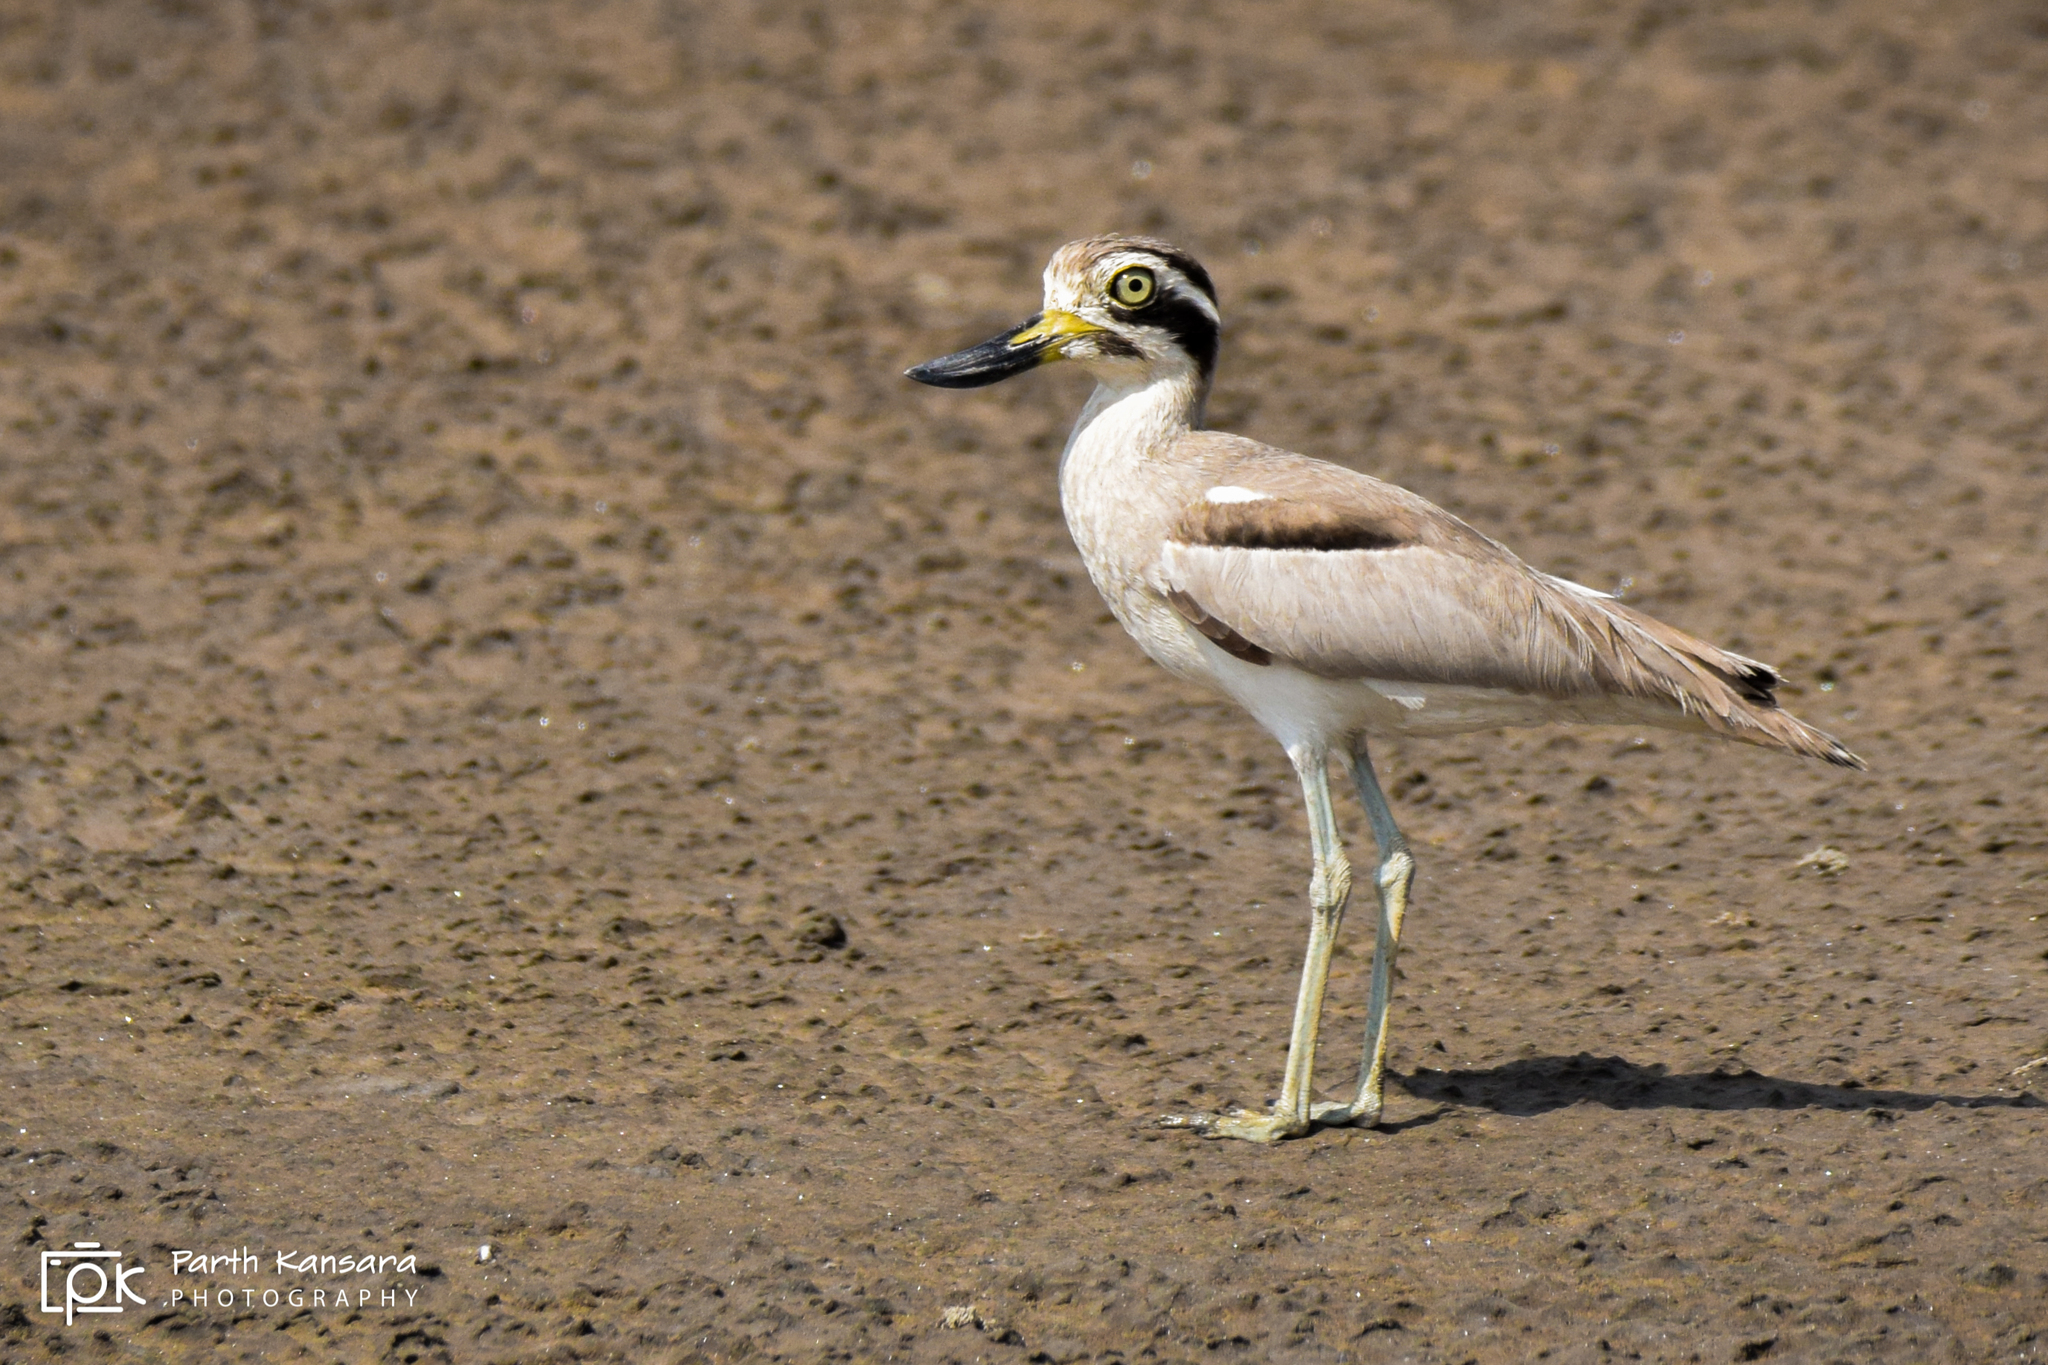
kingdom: Animalia
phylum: Chordata
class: Aves
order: Charadriiformes
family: Burhinidae
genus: Esacus
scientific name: Esacus recurvirostris
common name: Great stone-curlew
